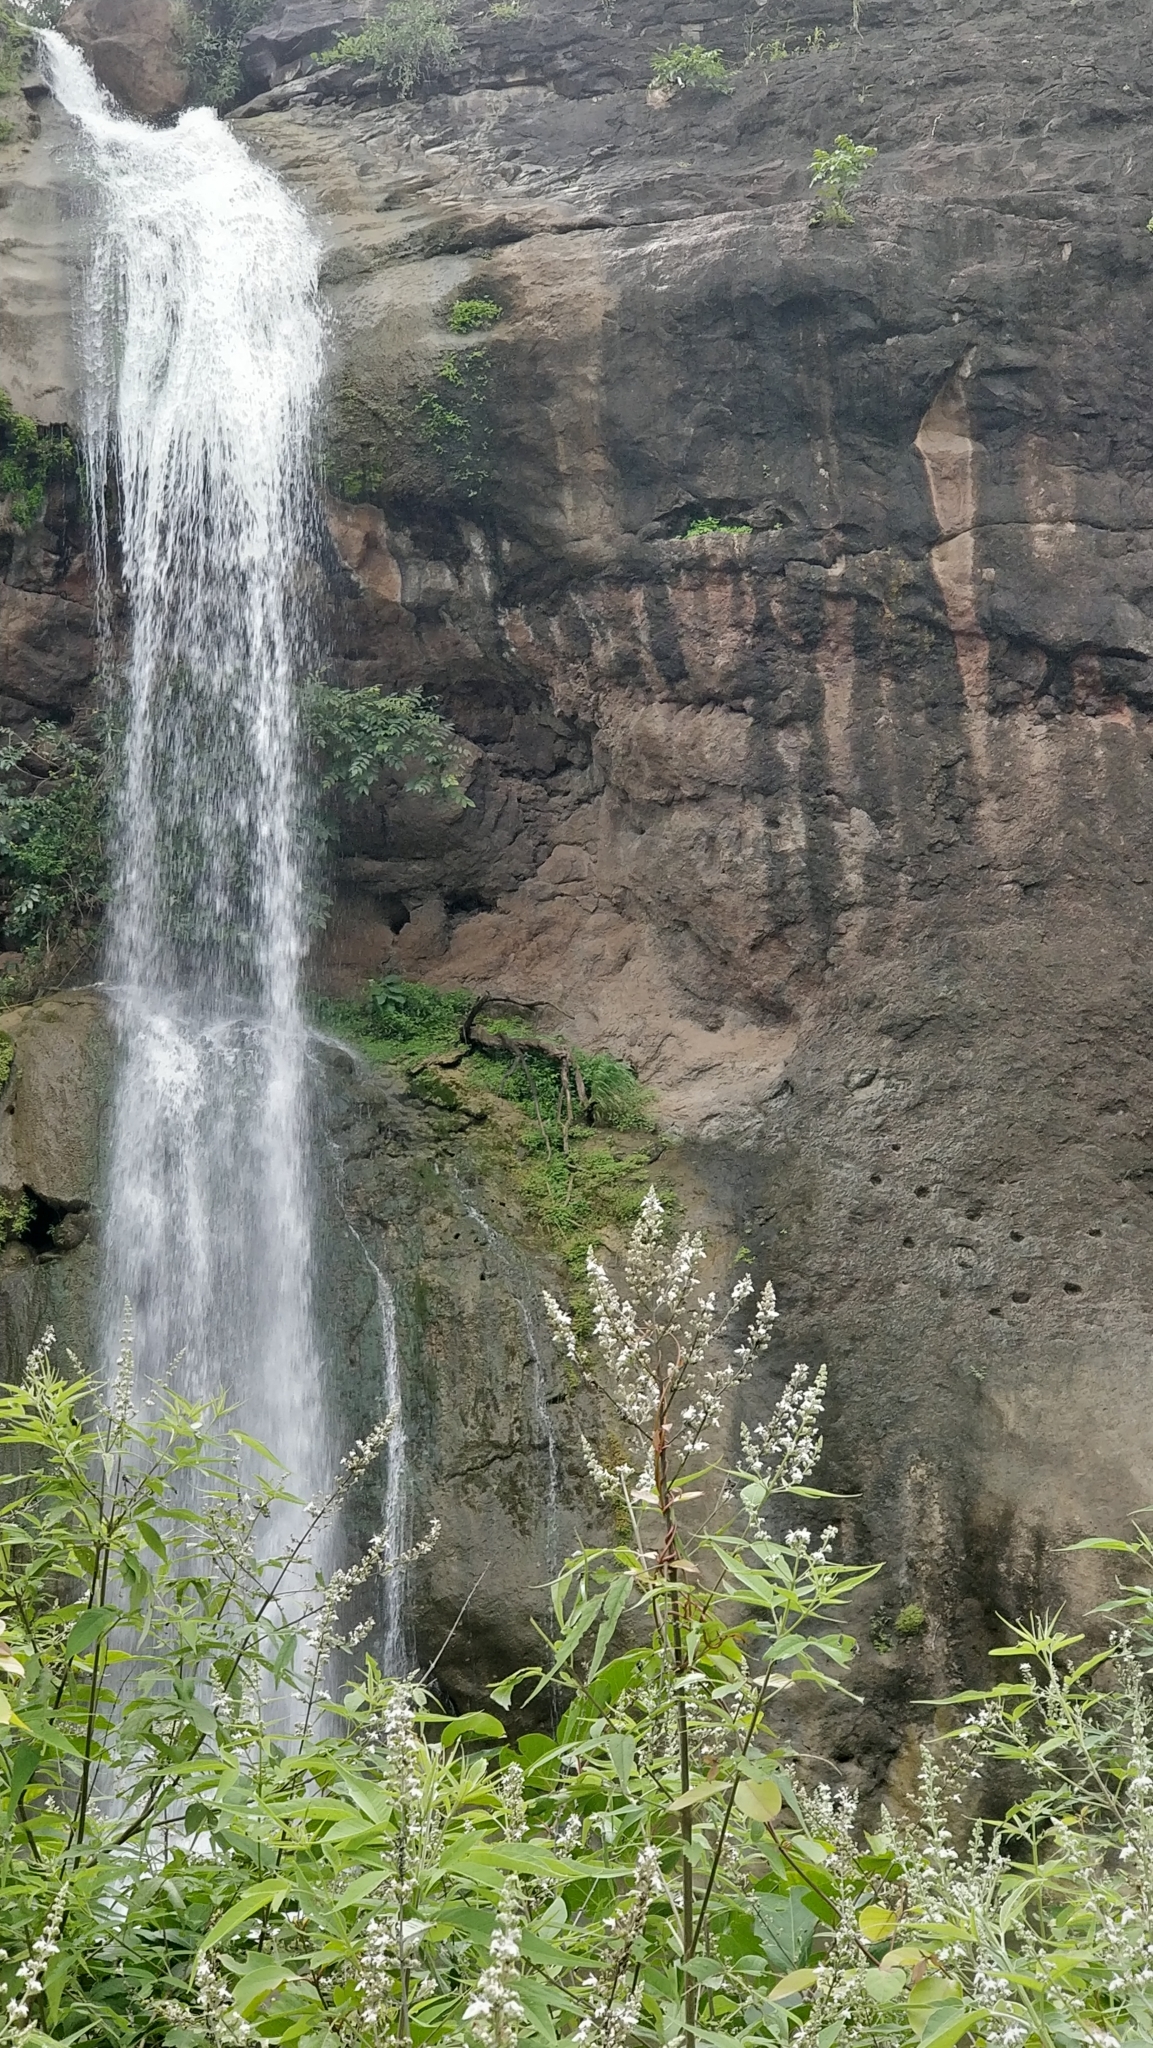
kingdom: Plantae
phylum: Tracheophyta
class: Magnoliopsida
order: Lamiales
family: Lamiaceae
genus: Vitex
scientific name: Vitex negundo
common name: Chinese chastetree
